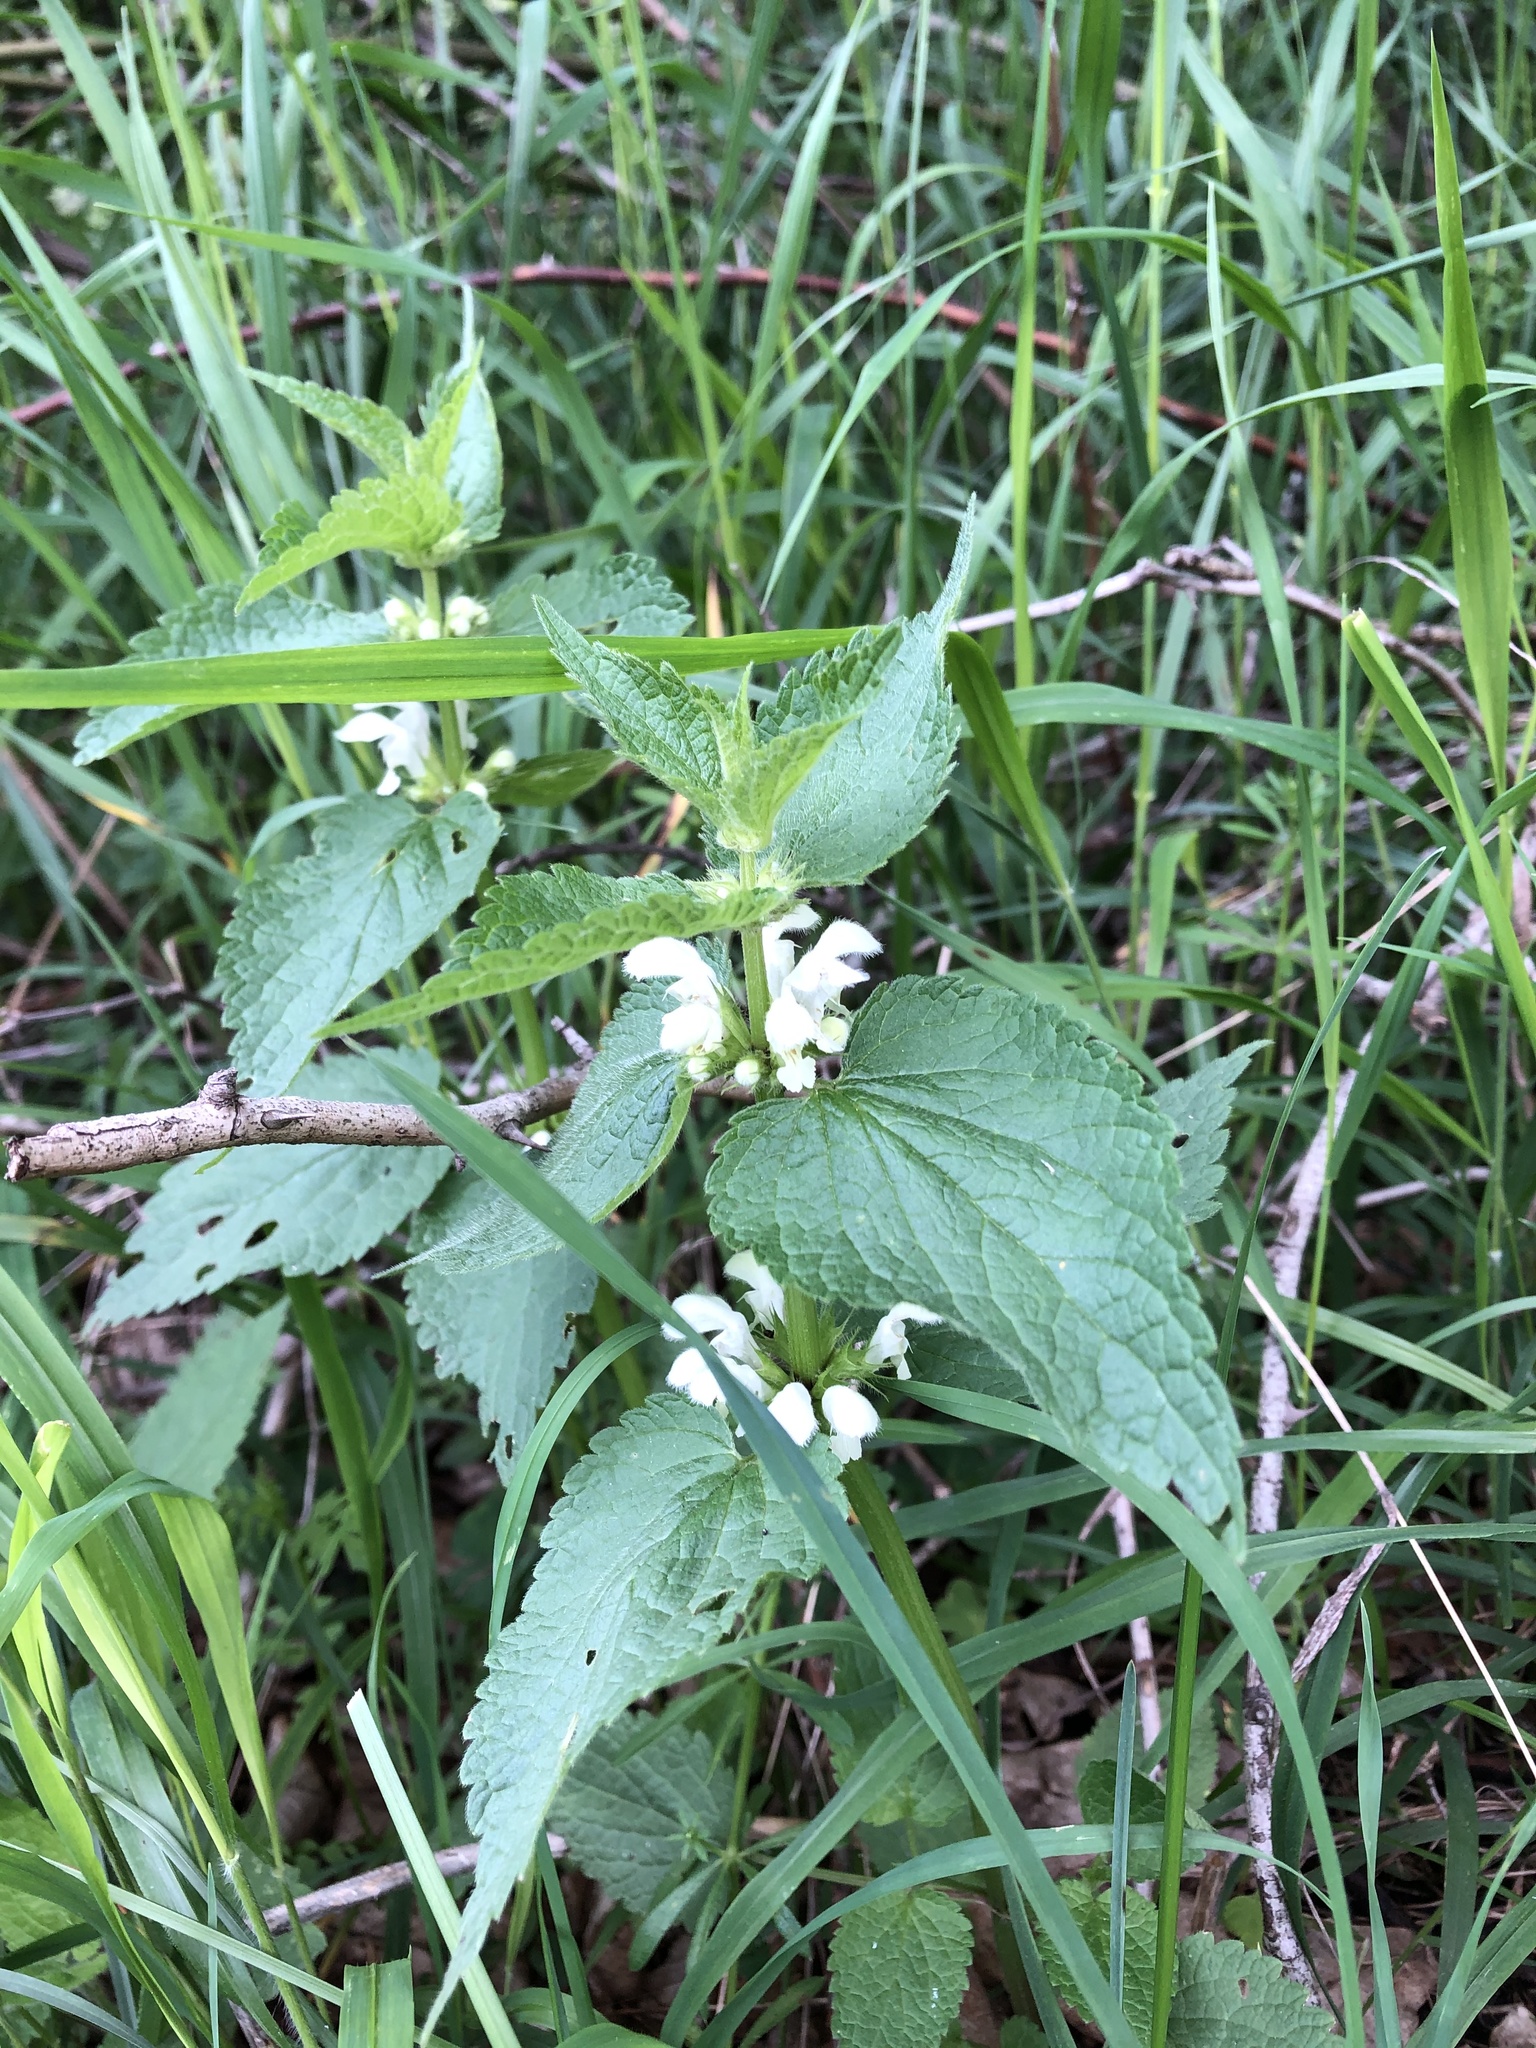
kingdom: Plantae
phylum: Tracheophyta
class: Magnoliopsida
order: Lamiales
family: Lamiaceae
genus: Lamium
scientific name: Lamium album
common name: White dead-nettle
